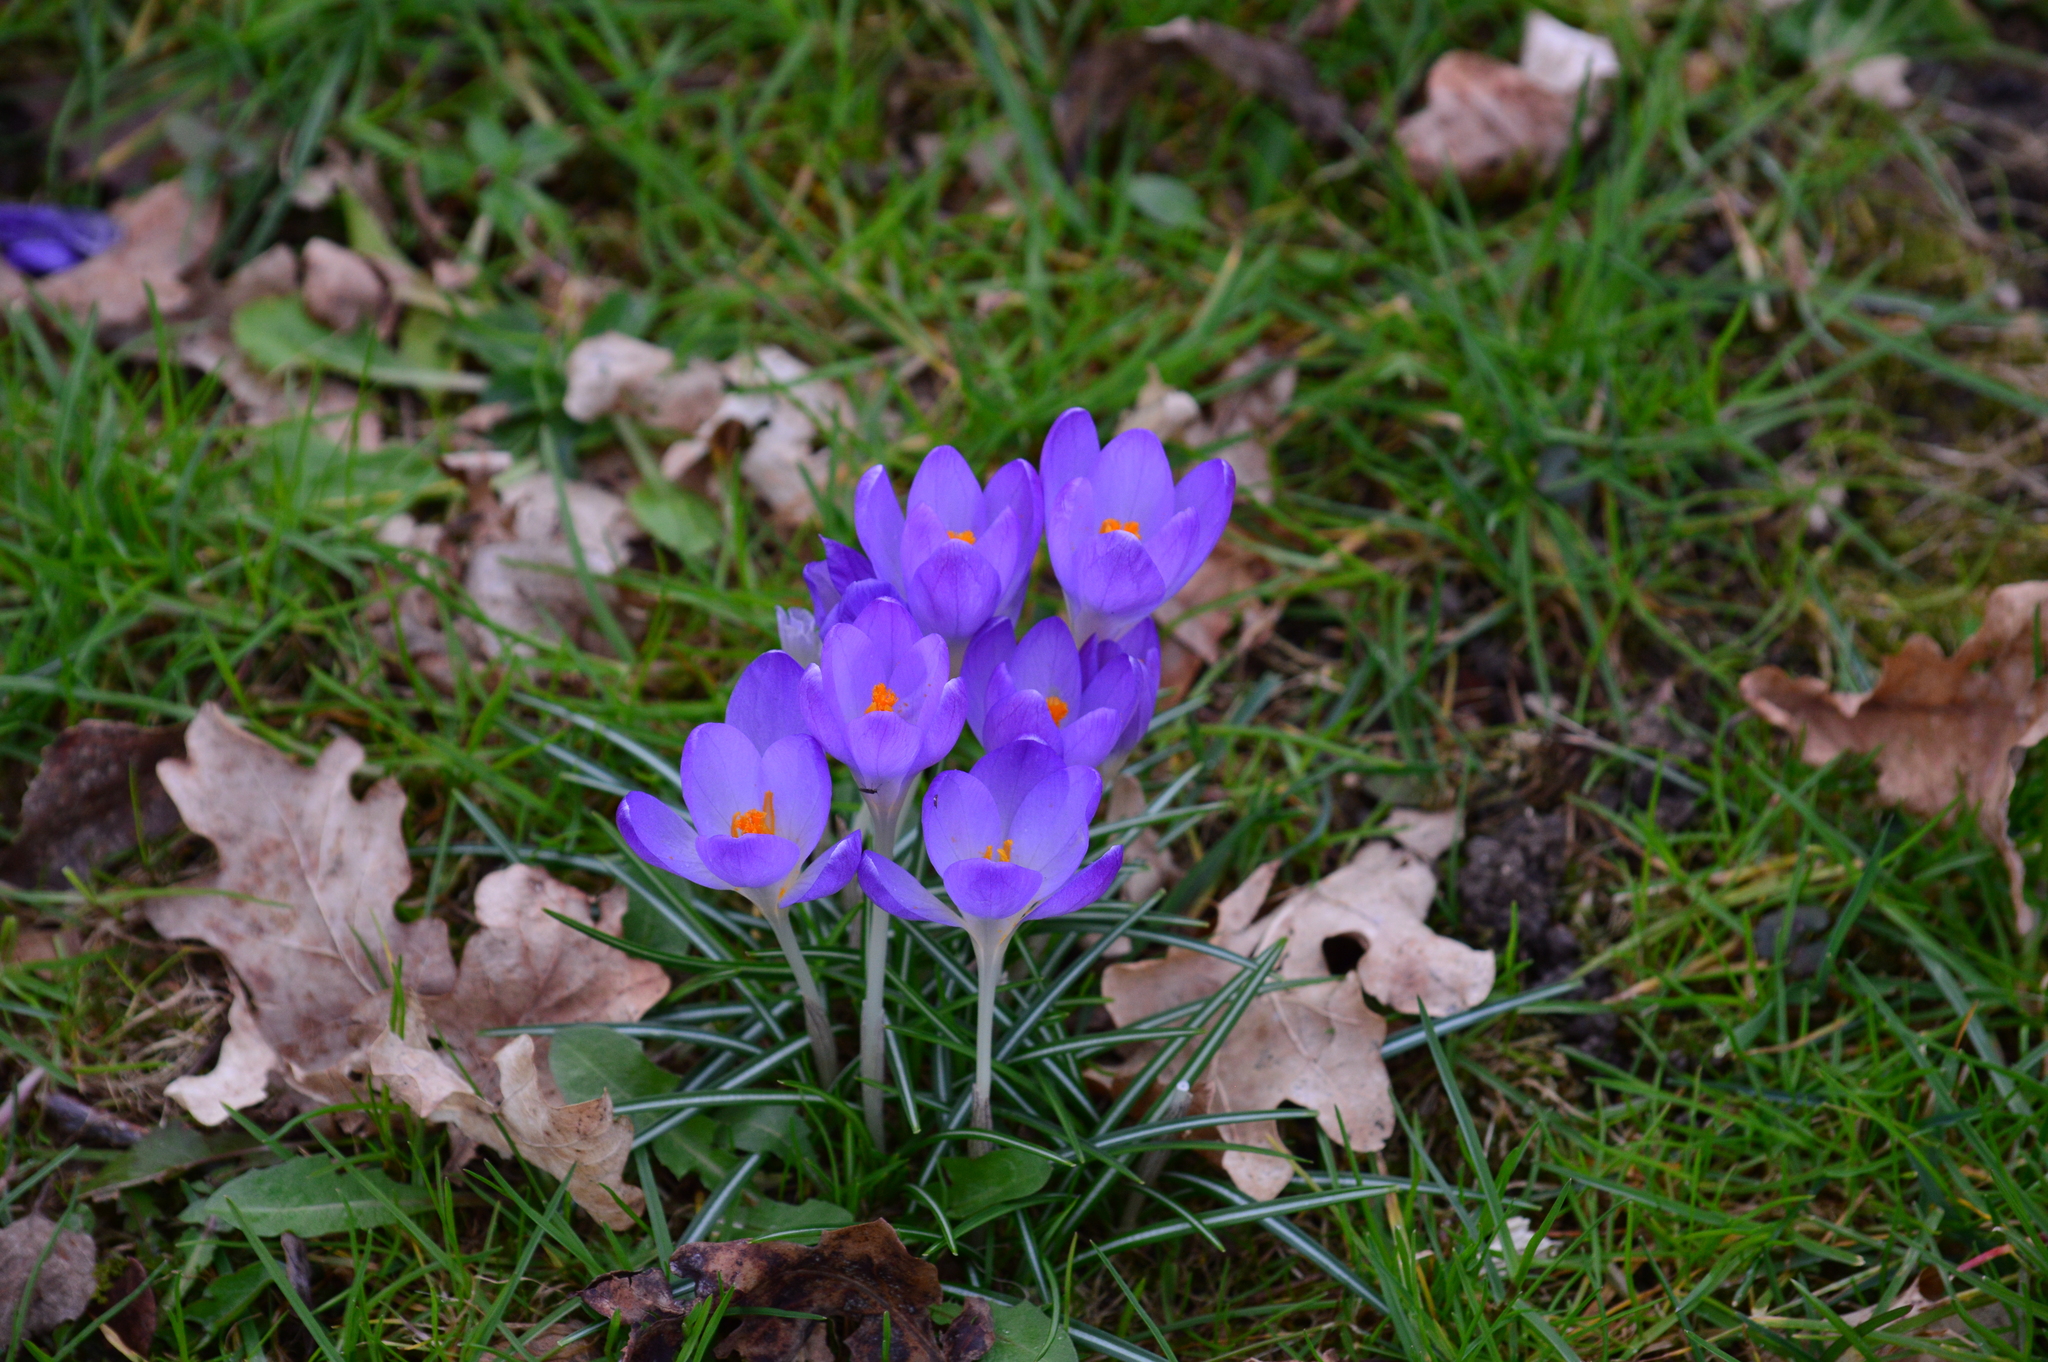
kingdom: Plantae
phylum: Tracheophyta
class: Liliopsida
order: Asparagales
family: Iridaceae
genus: Crocus
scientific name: Crocus tommasinianus
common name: Early crocus
